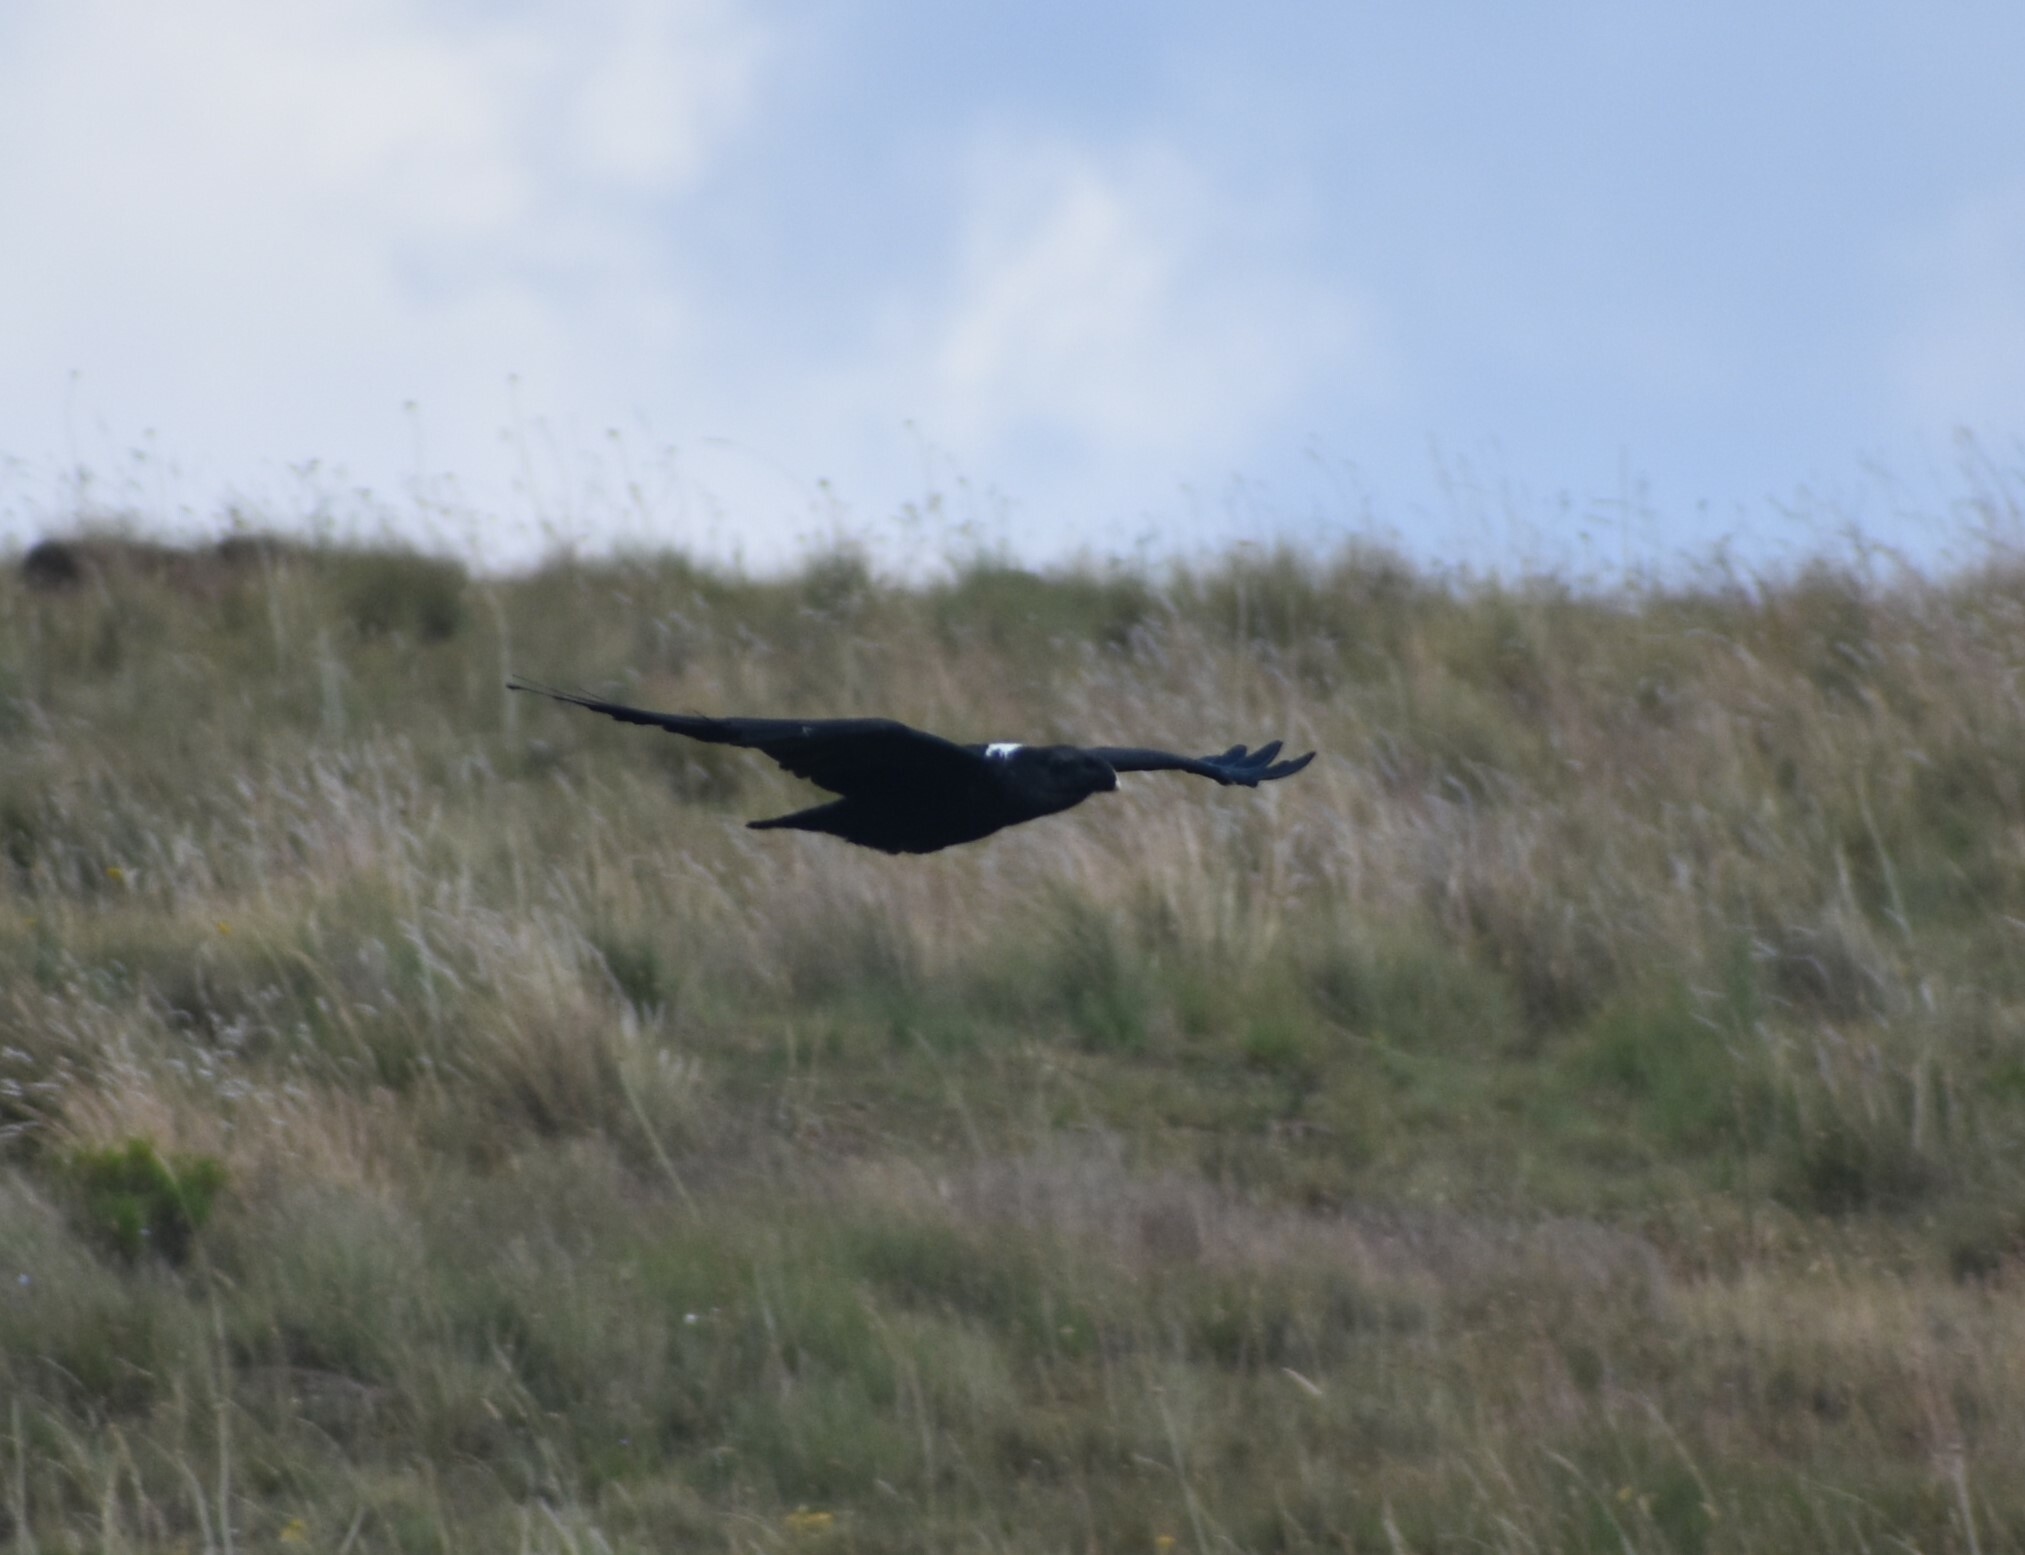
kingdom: Animalia
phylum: Chordata
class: Aves
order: Passeriformes
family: Corvidae
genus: Corvus
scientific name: Corvus albicollis
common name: White-necked raven
